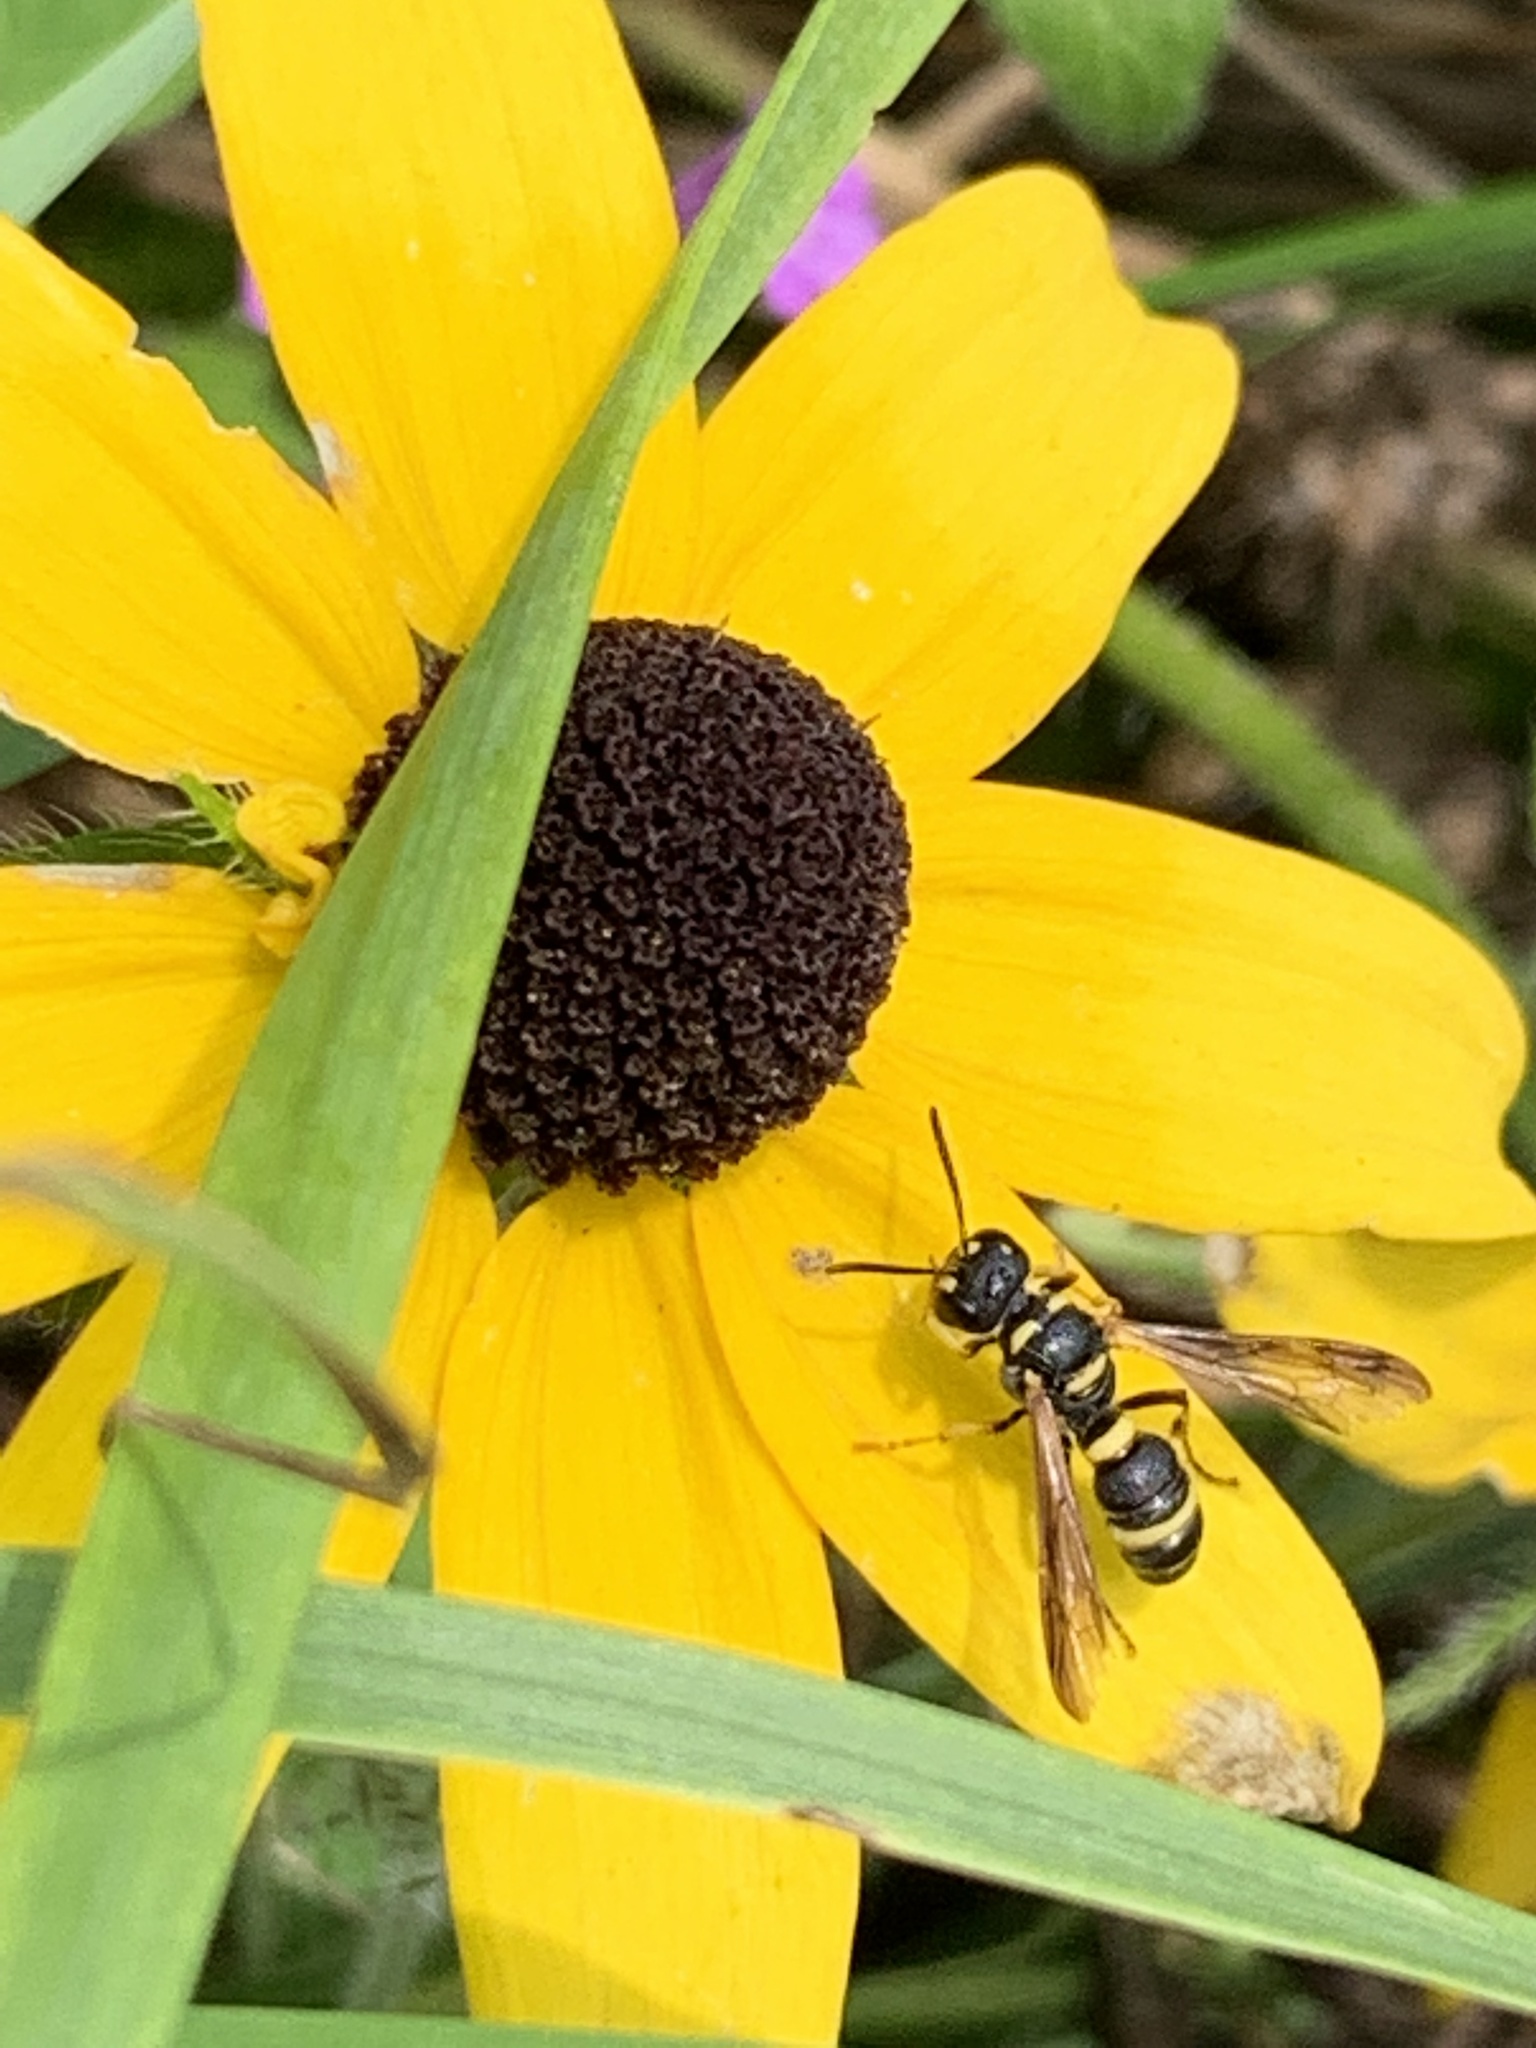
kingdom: Animalia
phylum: Arthropoda
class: Insecta
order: Hymenoptera
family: Crabronidae
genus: Cerceris
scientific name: Cerceris insolita
